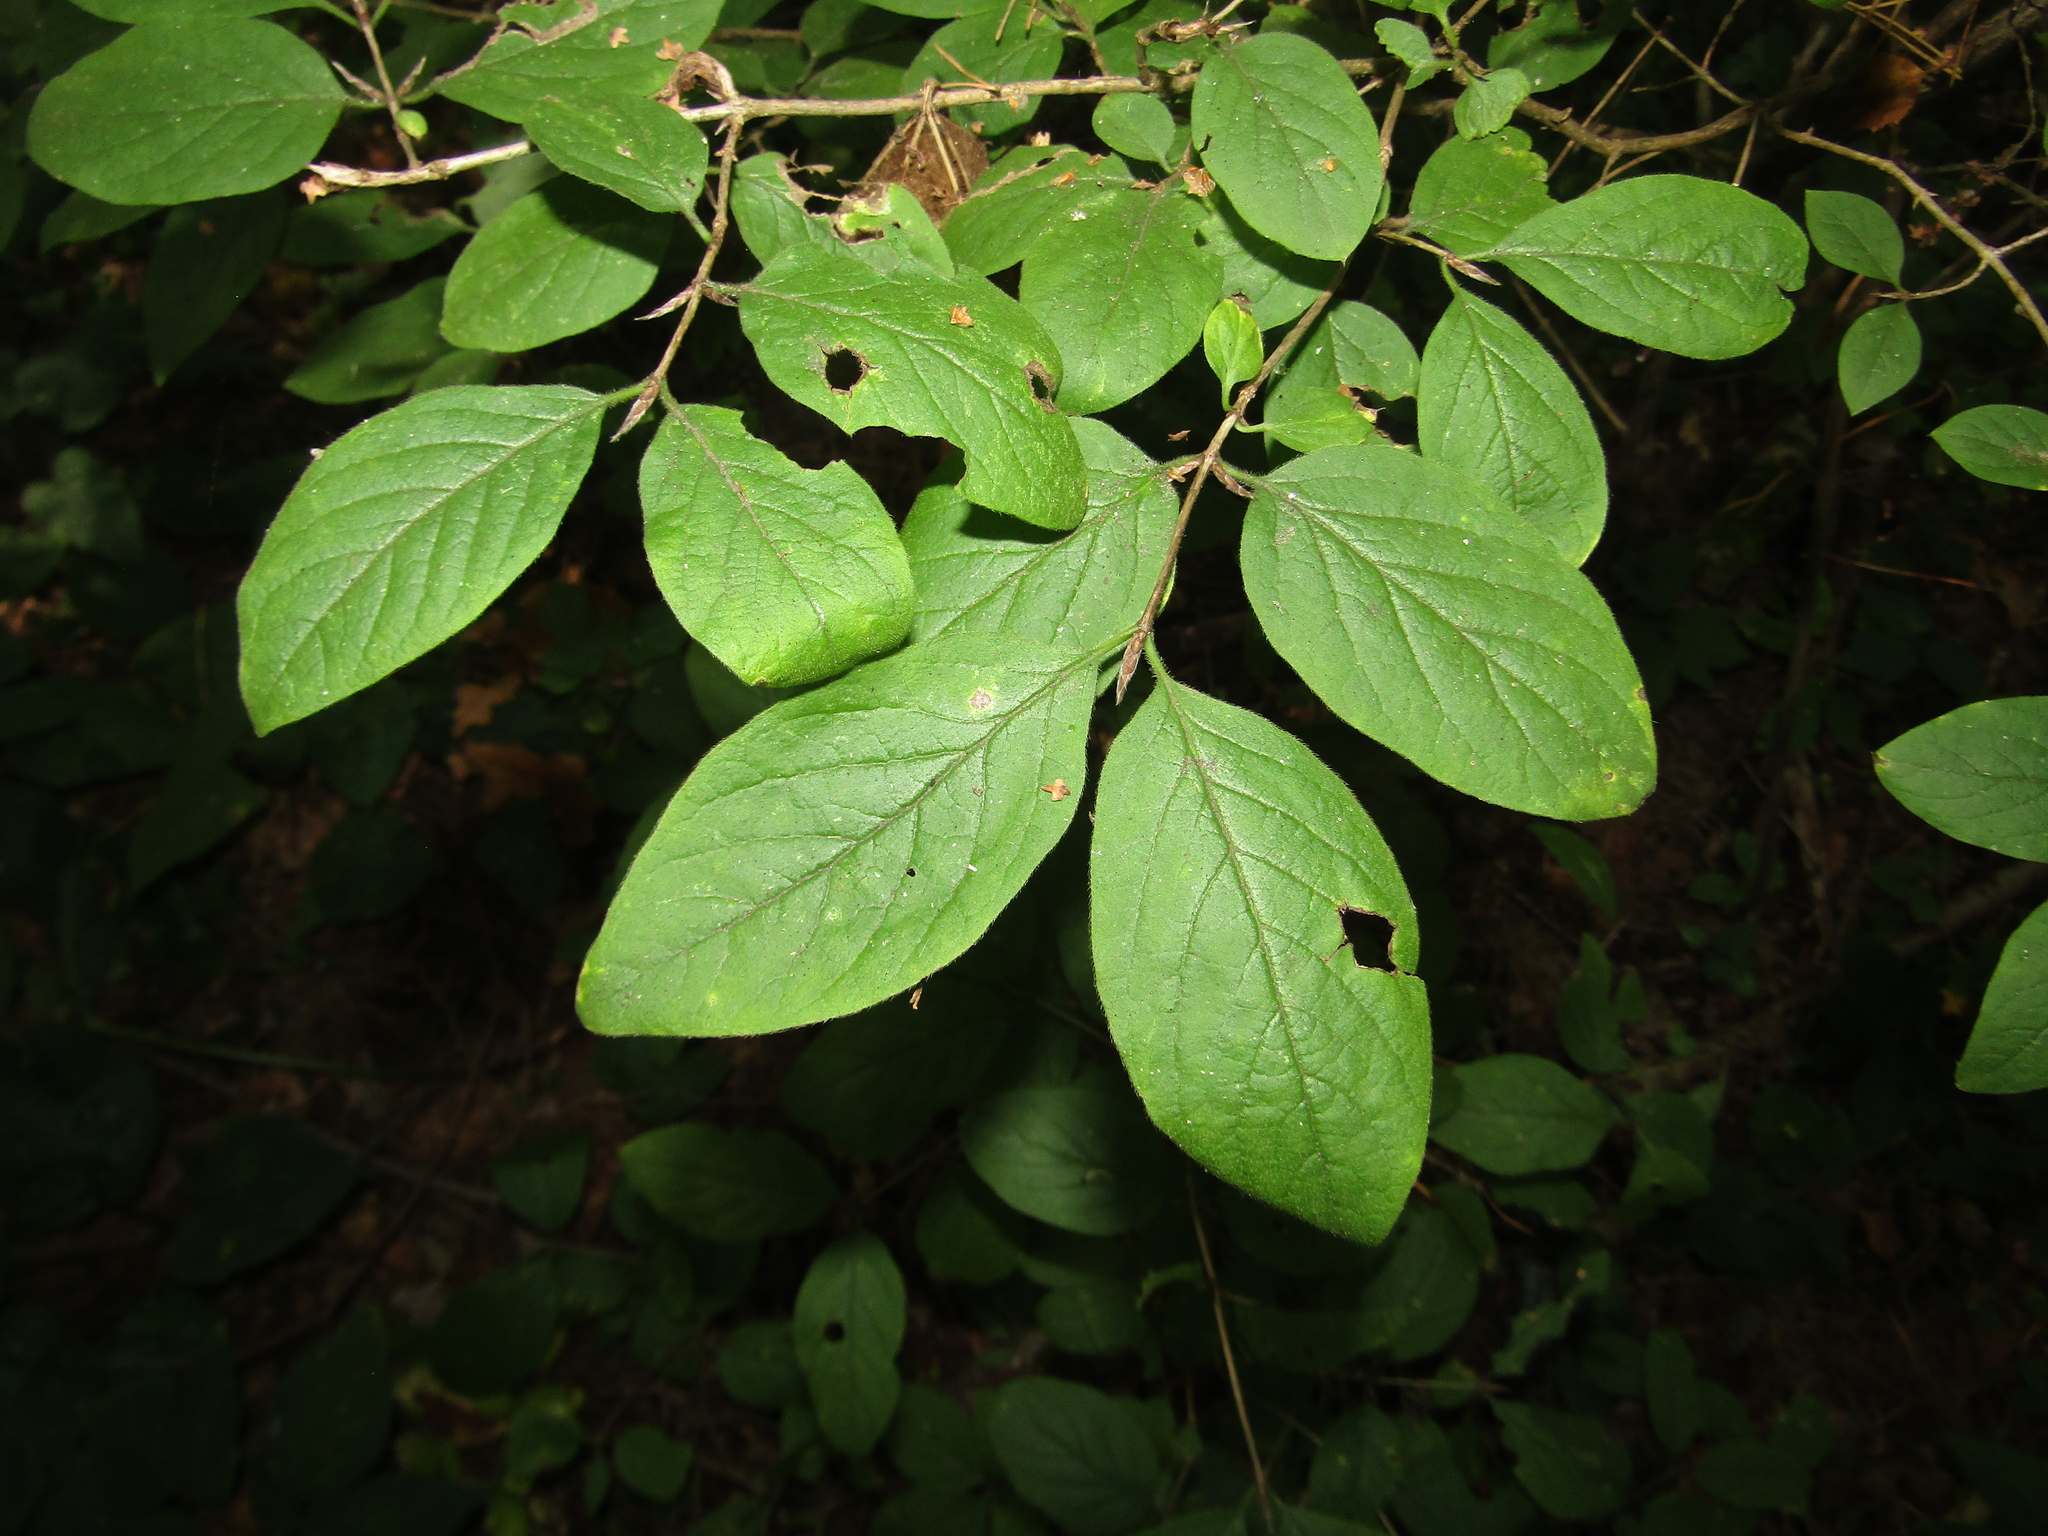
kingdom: Plantae
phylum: Tracheophyta
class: Magnoliopsida
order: Dipsacales
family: Caprifoliaceae
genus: Lonicera
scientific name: Lonicera xylosteum
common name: Fly honeysuckle
